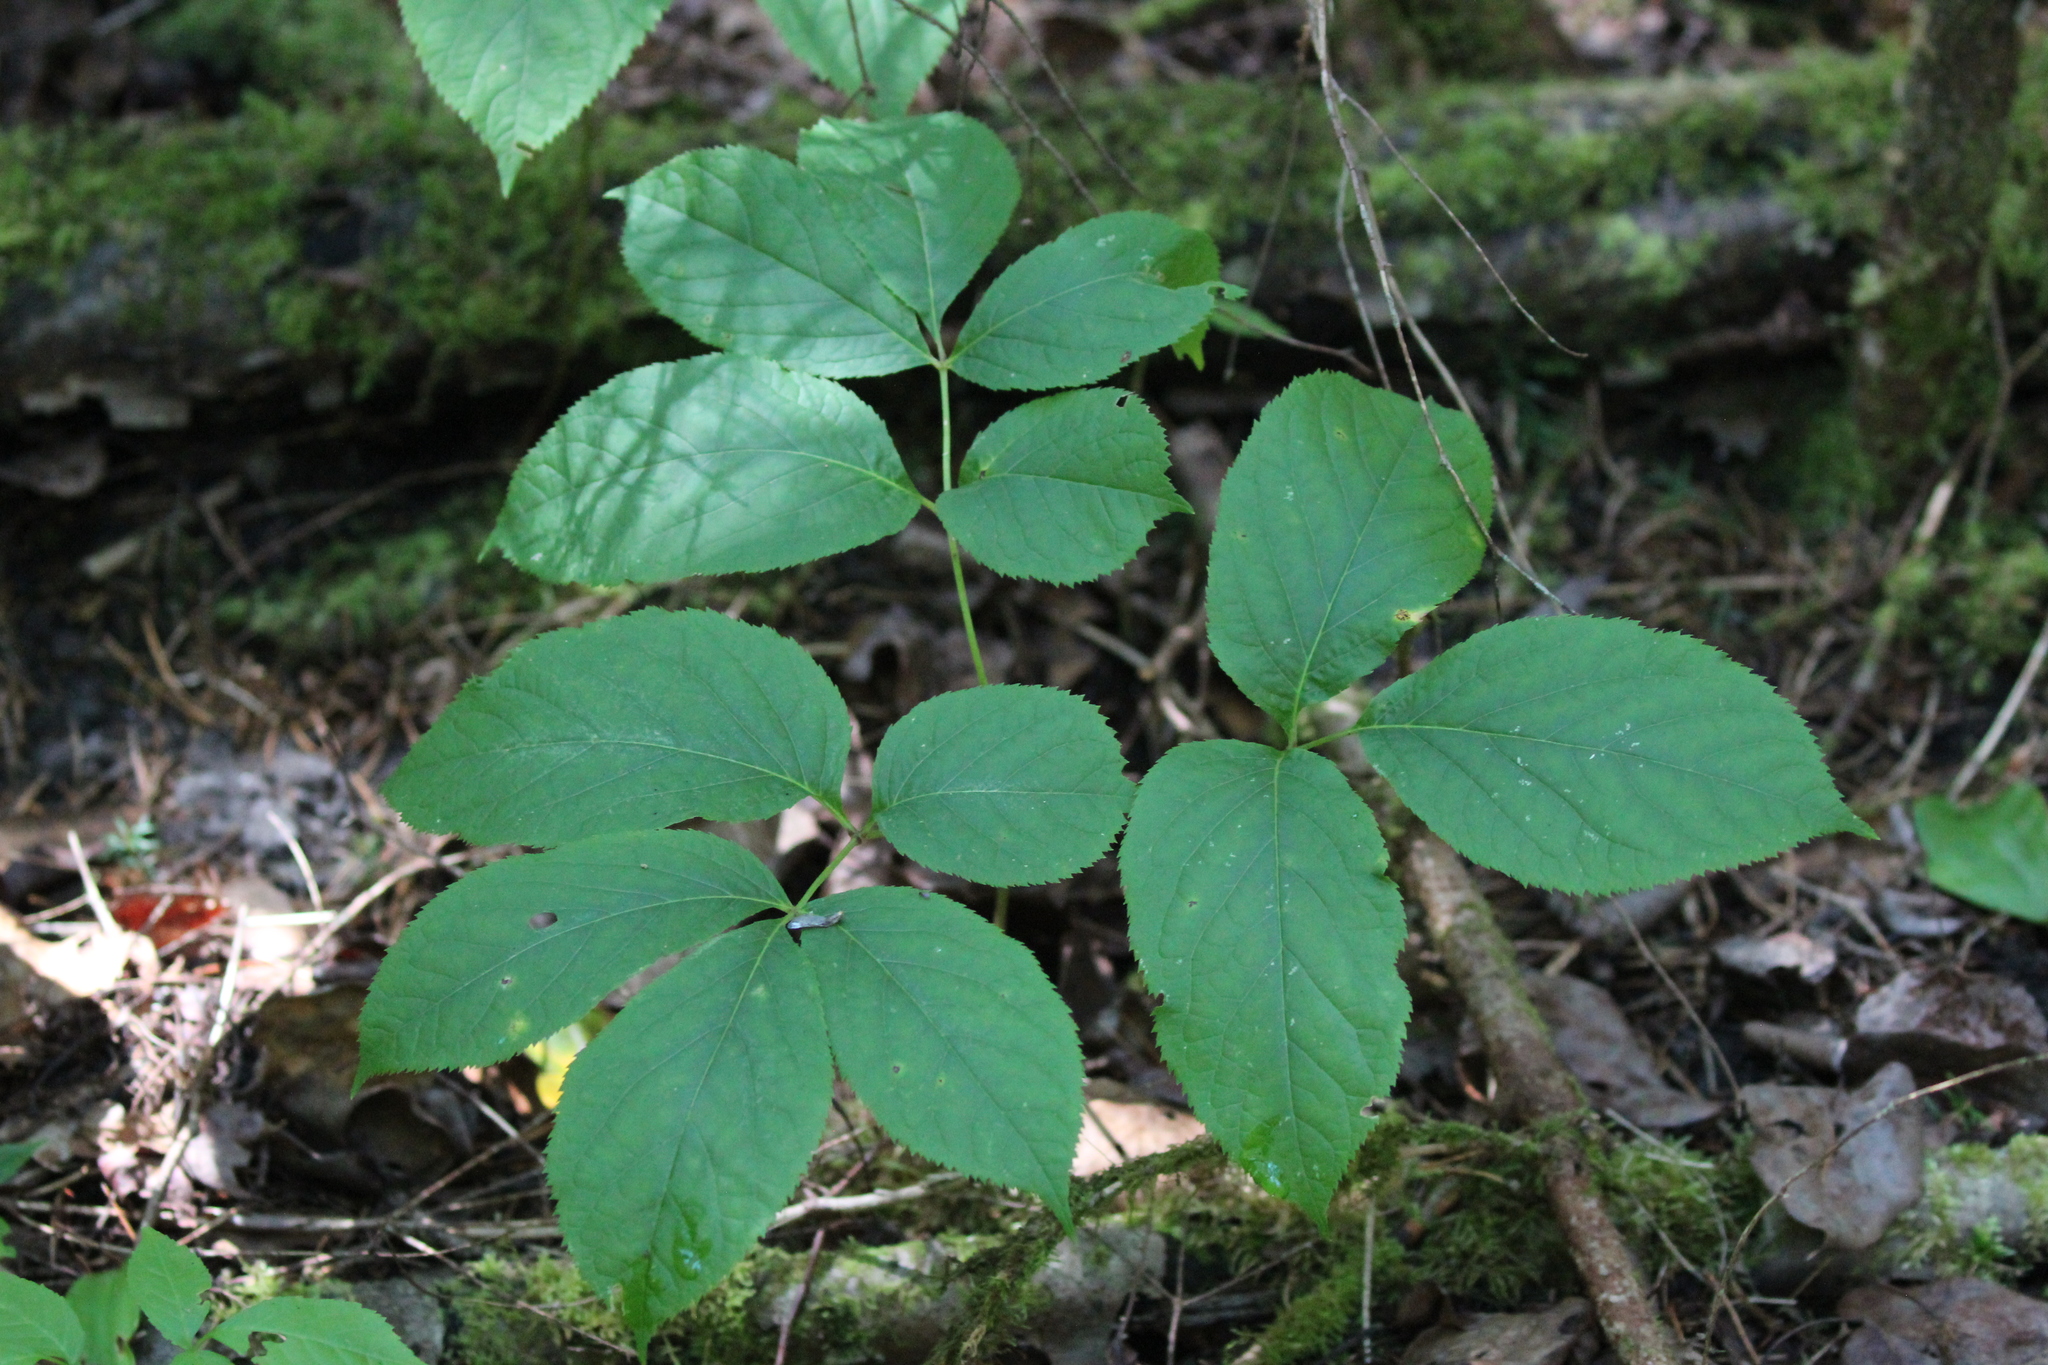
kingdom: Plantae
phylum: Tracheophyta
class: Magnoliopsida
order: Apiales
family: Araliaceae
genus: Aralia
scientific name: Aralia nudicaulis
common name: Wild sarsaparilla
